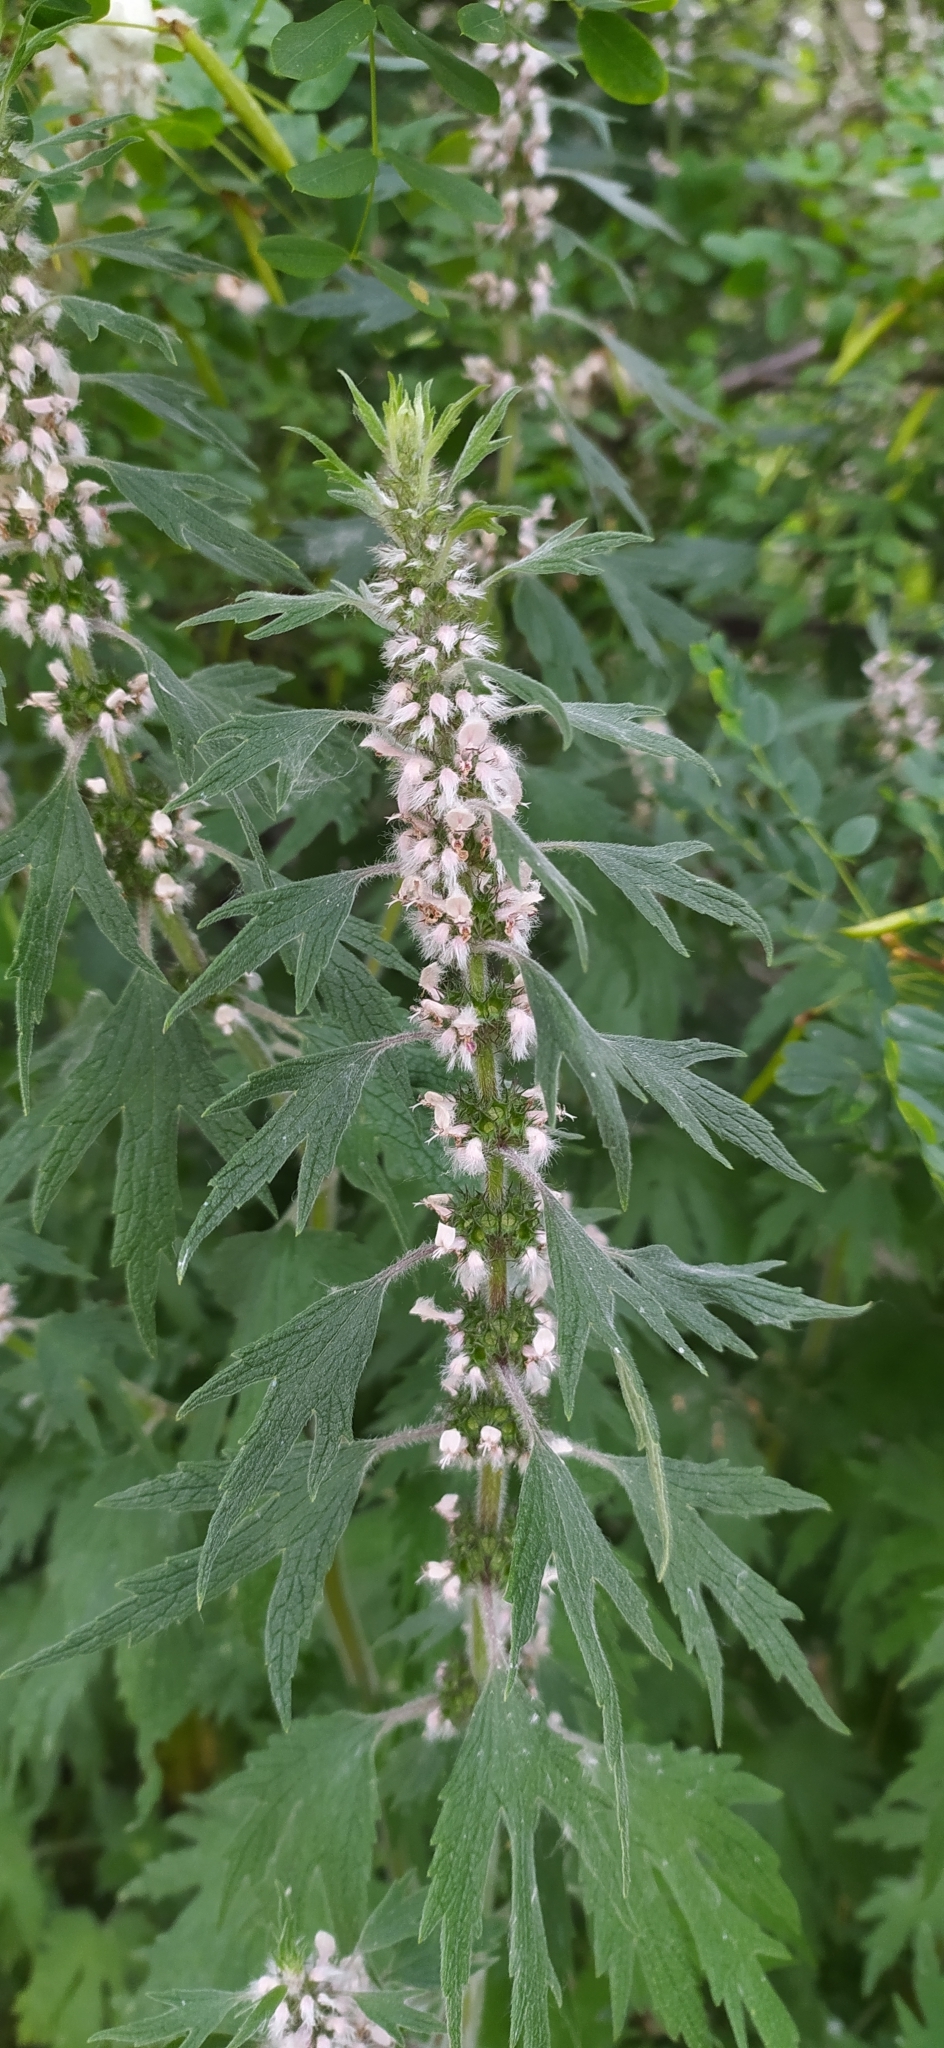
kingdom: Plantae
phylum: Tracheophyta
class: Magnoliopsida
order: Lamiales
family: Lamiaceae
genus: Leonurus
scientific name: Leonurus quinquelobatus
